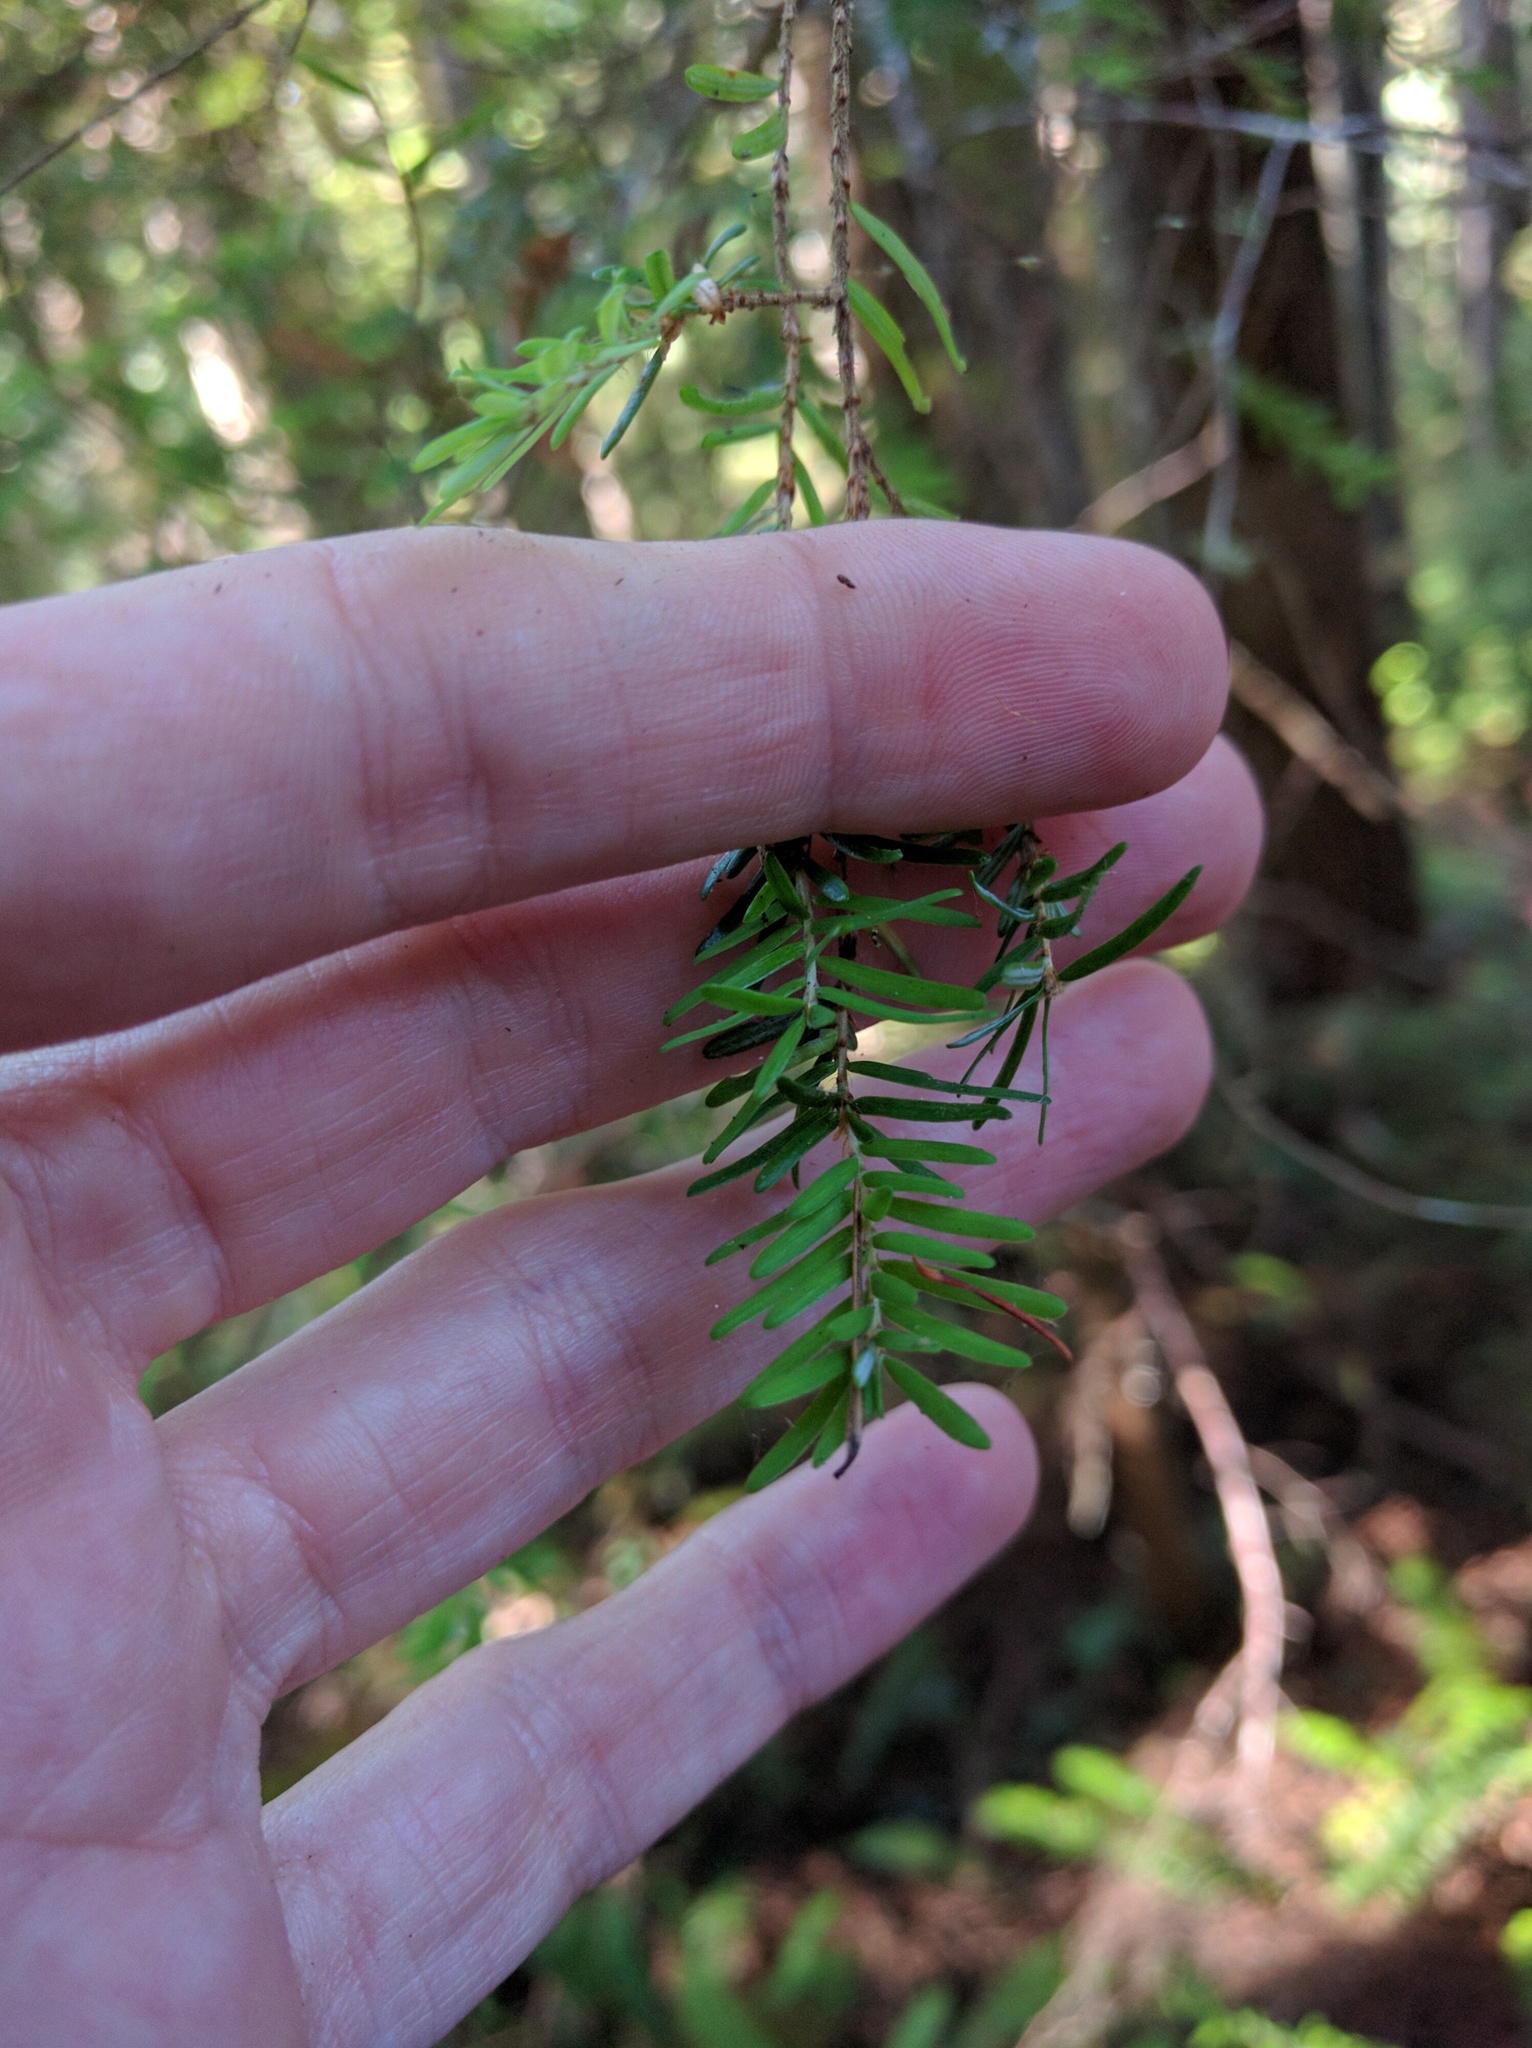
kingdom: Plantae
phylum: Tracheophyta
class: Pinopsida
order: Pinales
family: Pinaceae
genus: Tsuga
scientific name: Tsuga heterophylla
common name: Western hemlock
